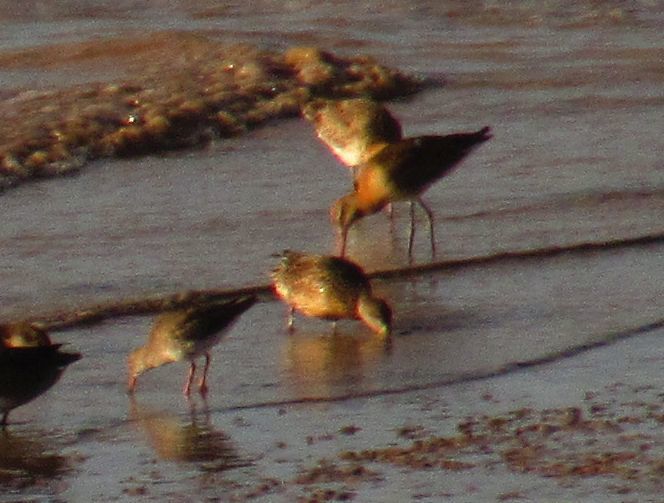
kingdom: Animalia
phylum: Chordata
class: Aves
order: Charadriiformes
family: Scolopacidae
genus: Limosa
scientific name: Limosa limosa
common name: Black-tailed godwit
